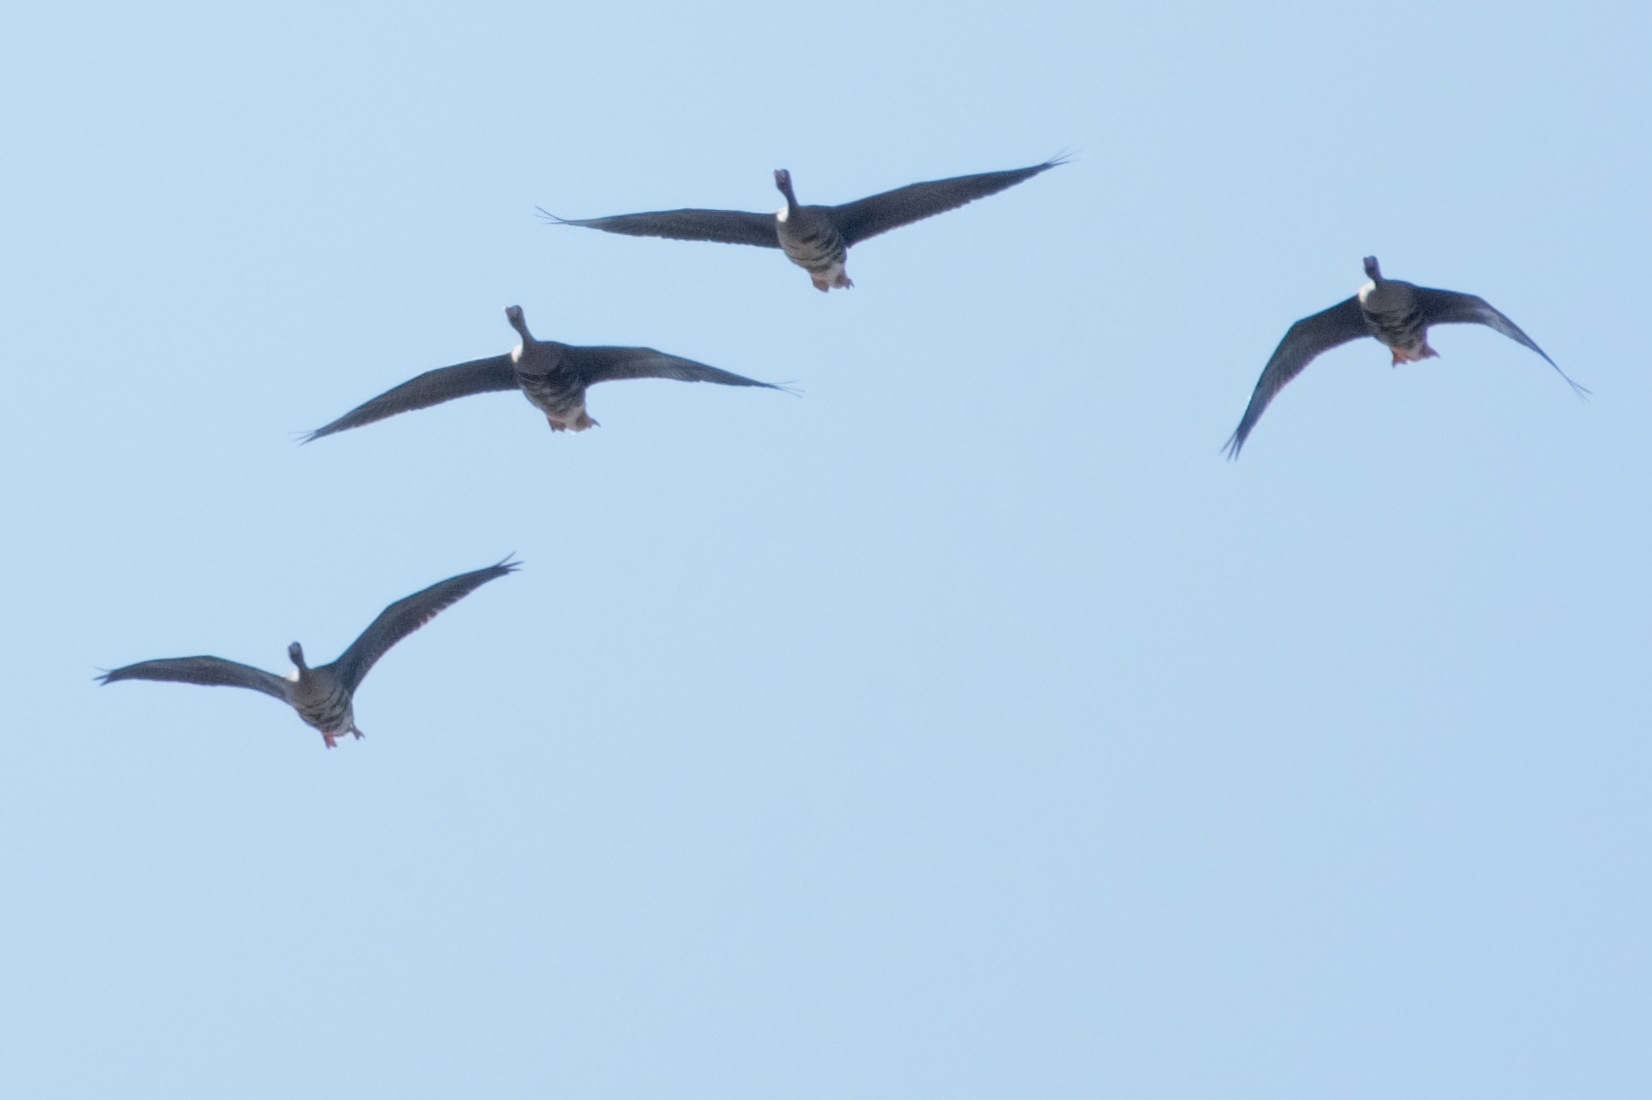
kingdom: Animalia
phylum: Chordata
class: Aves
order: Anseriformes
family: Anatidae
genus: Anser
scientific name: Anser albifrons
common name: Greater white-fronted goose
